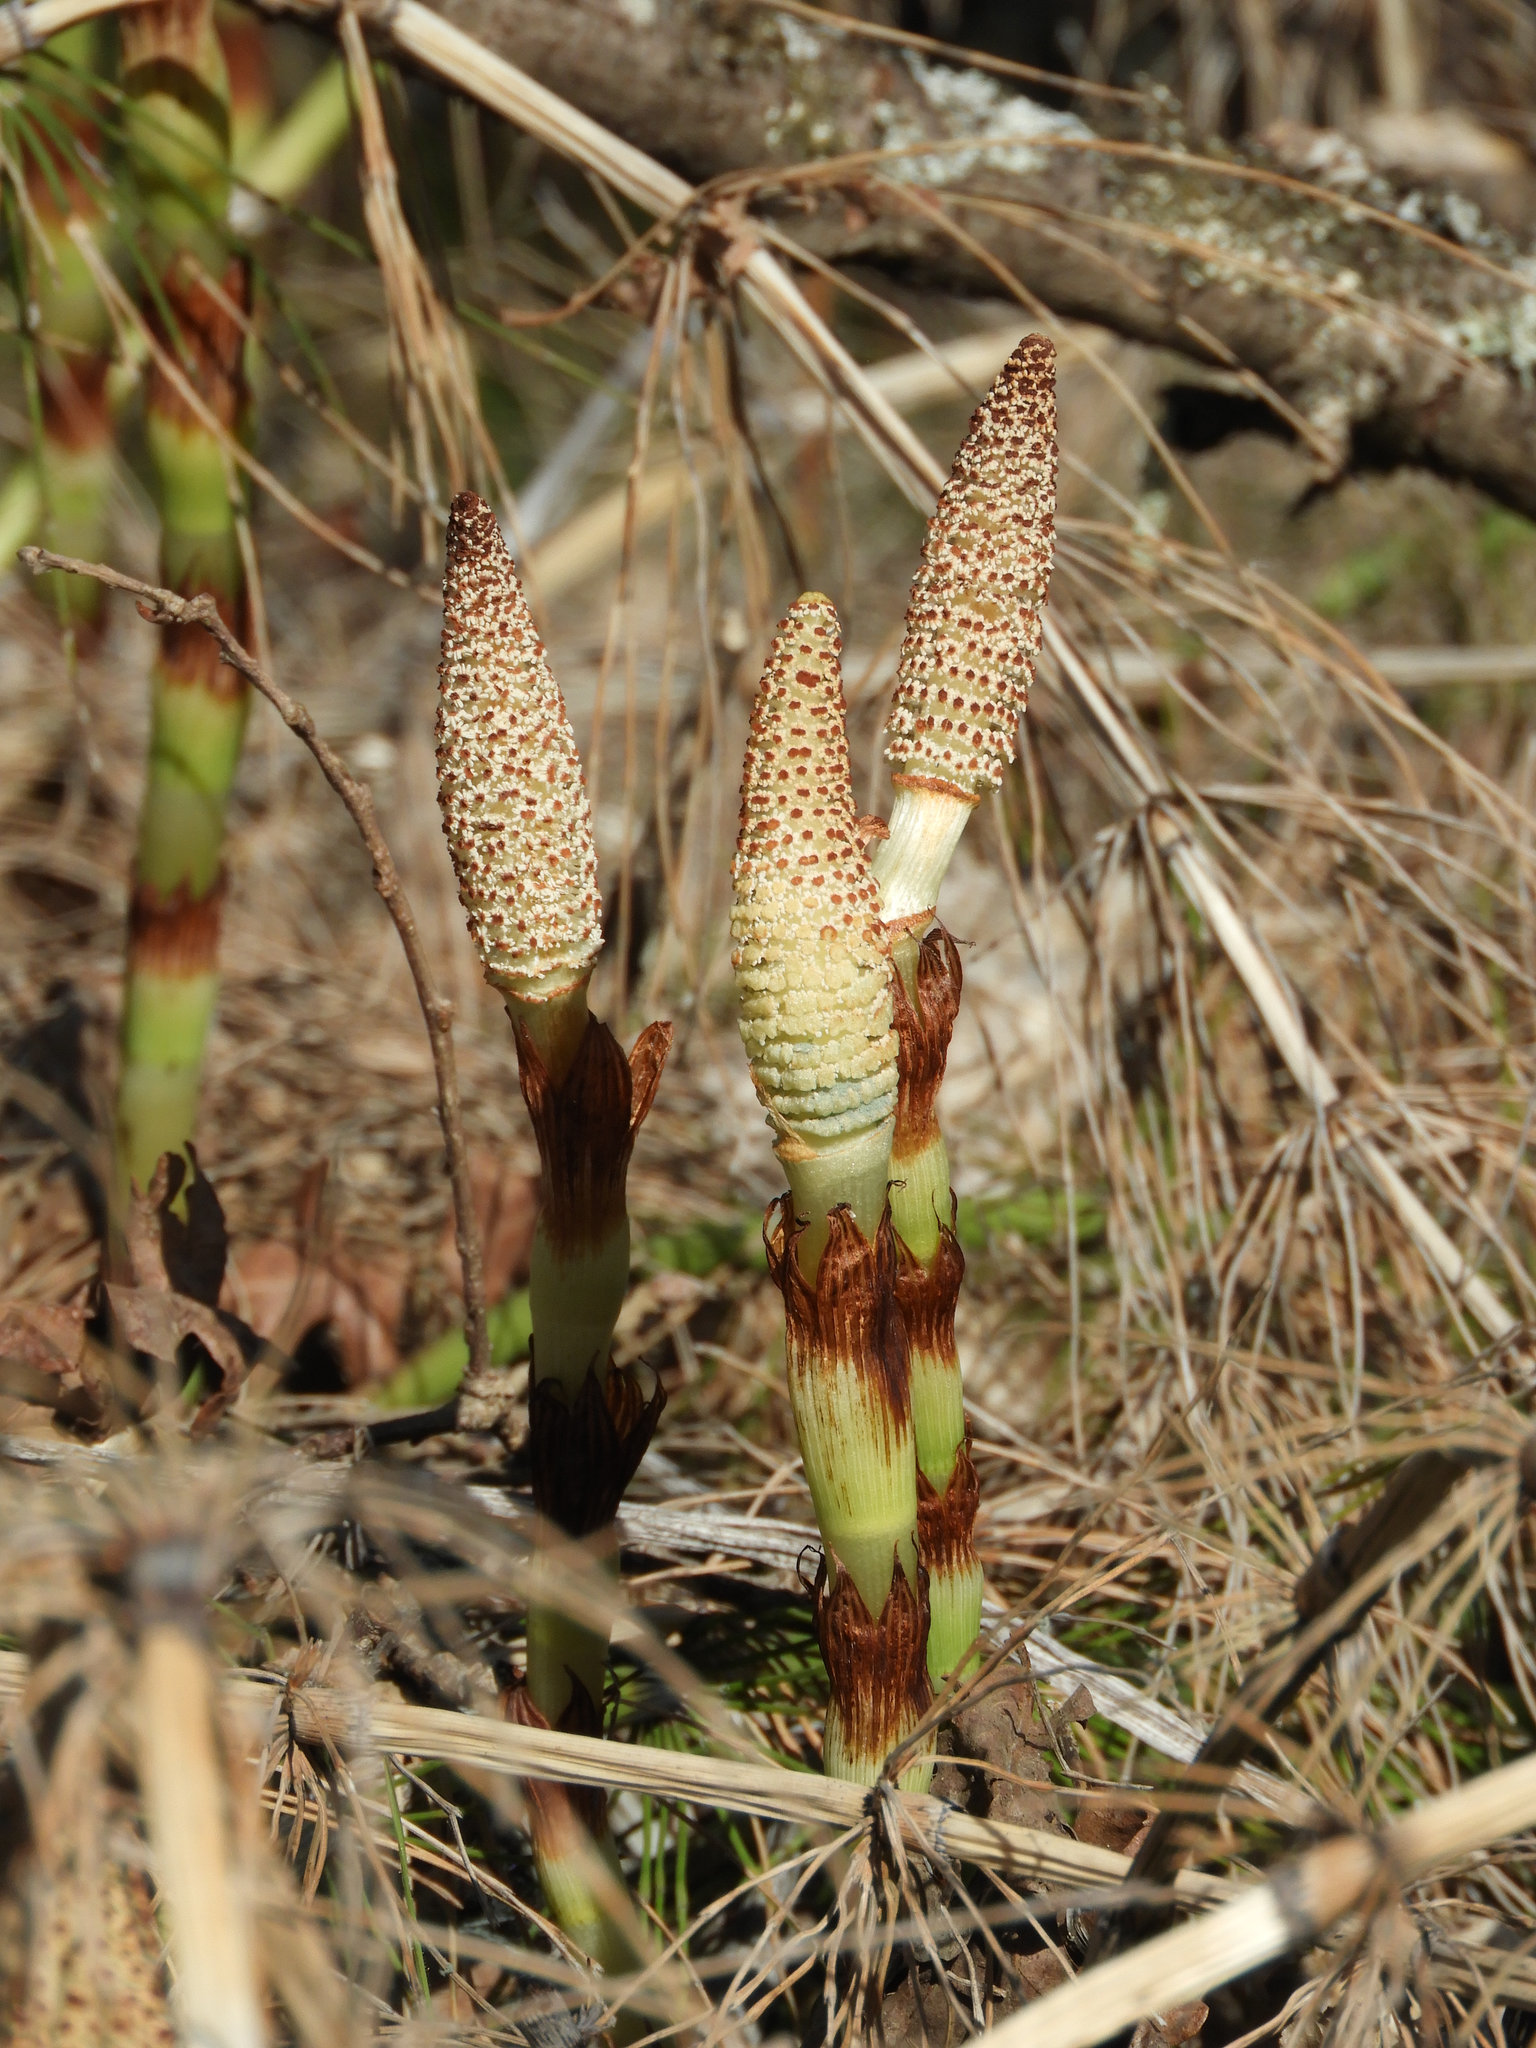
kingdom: Plantae
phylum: Tracheophyta
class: Polypodiopsida
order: Equisetales
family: Equisetaceae
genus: Equisetum
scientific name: Equisetum braunii
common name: Braun's horsetail
